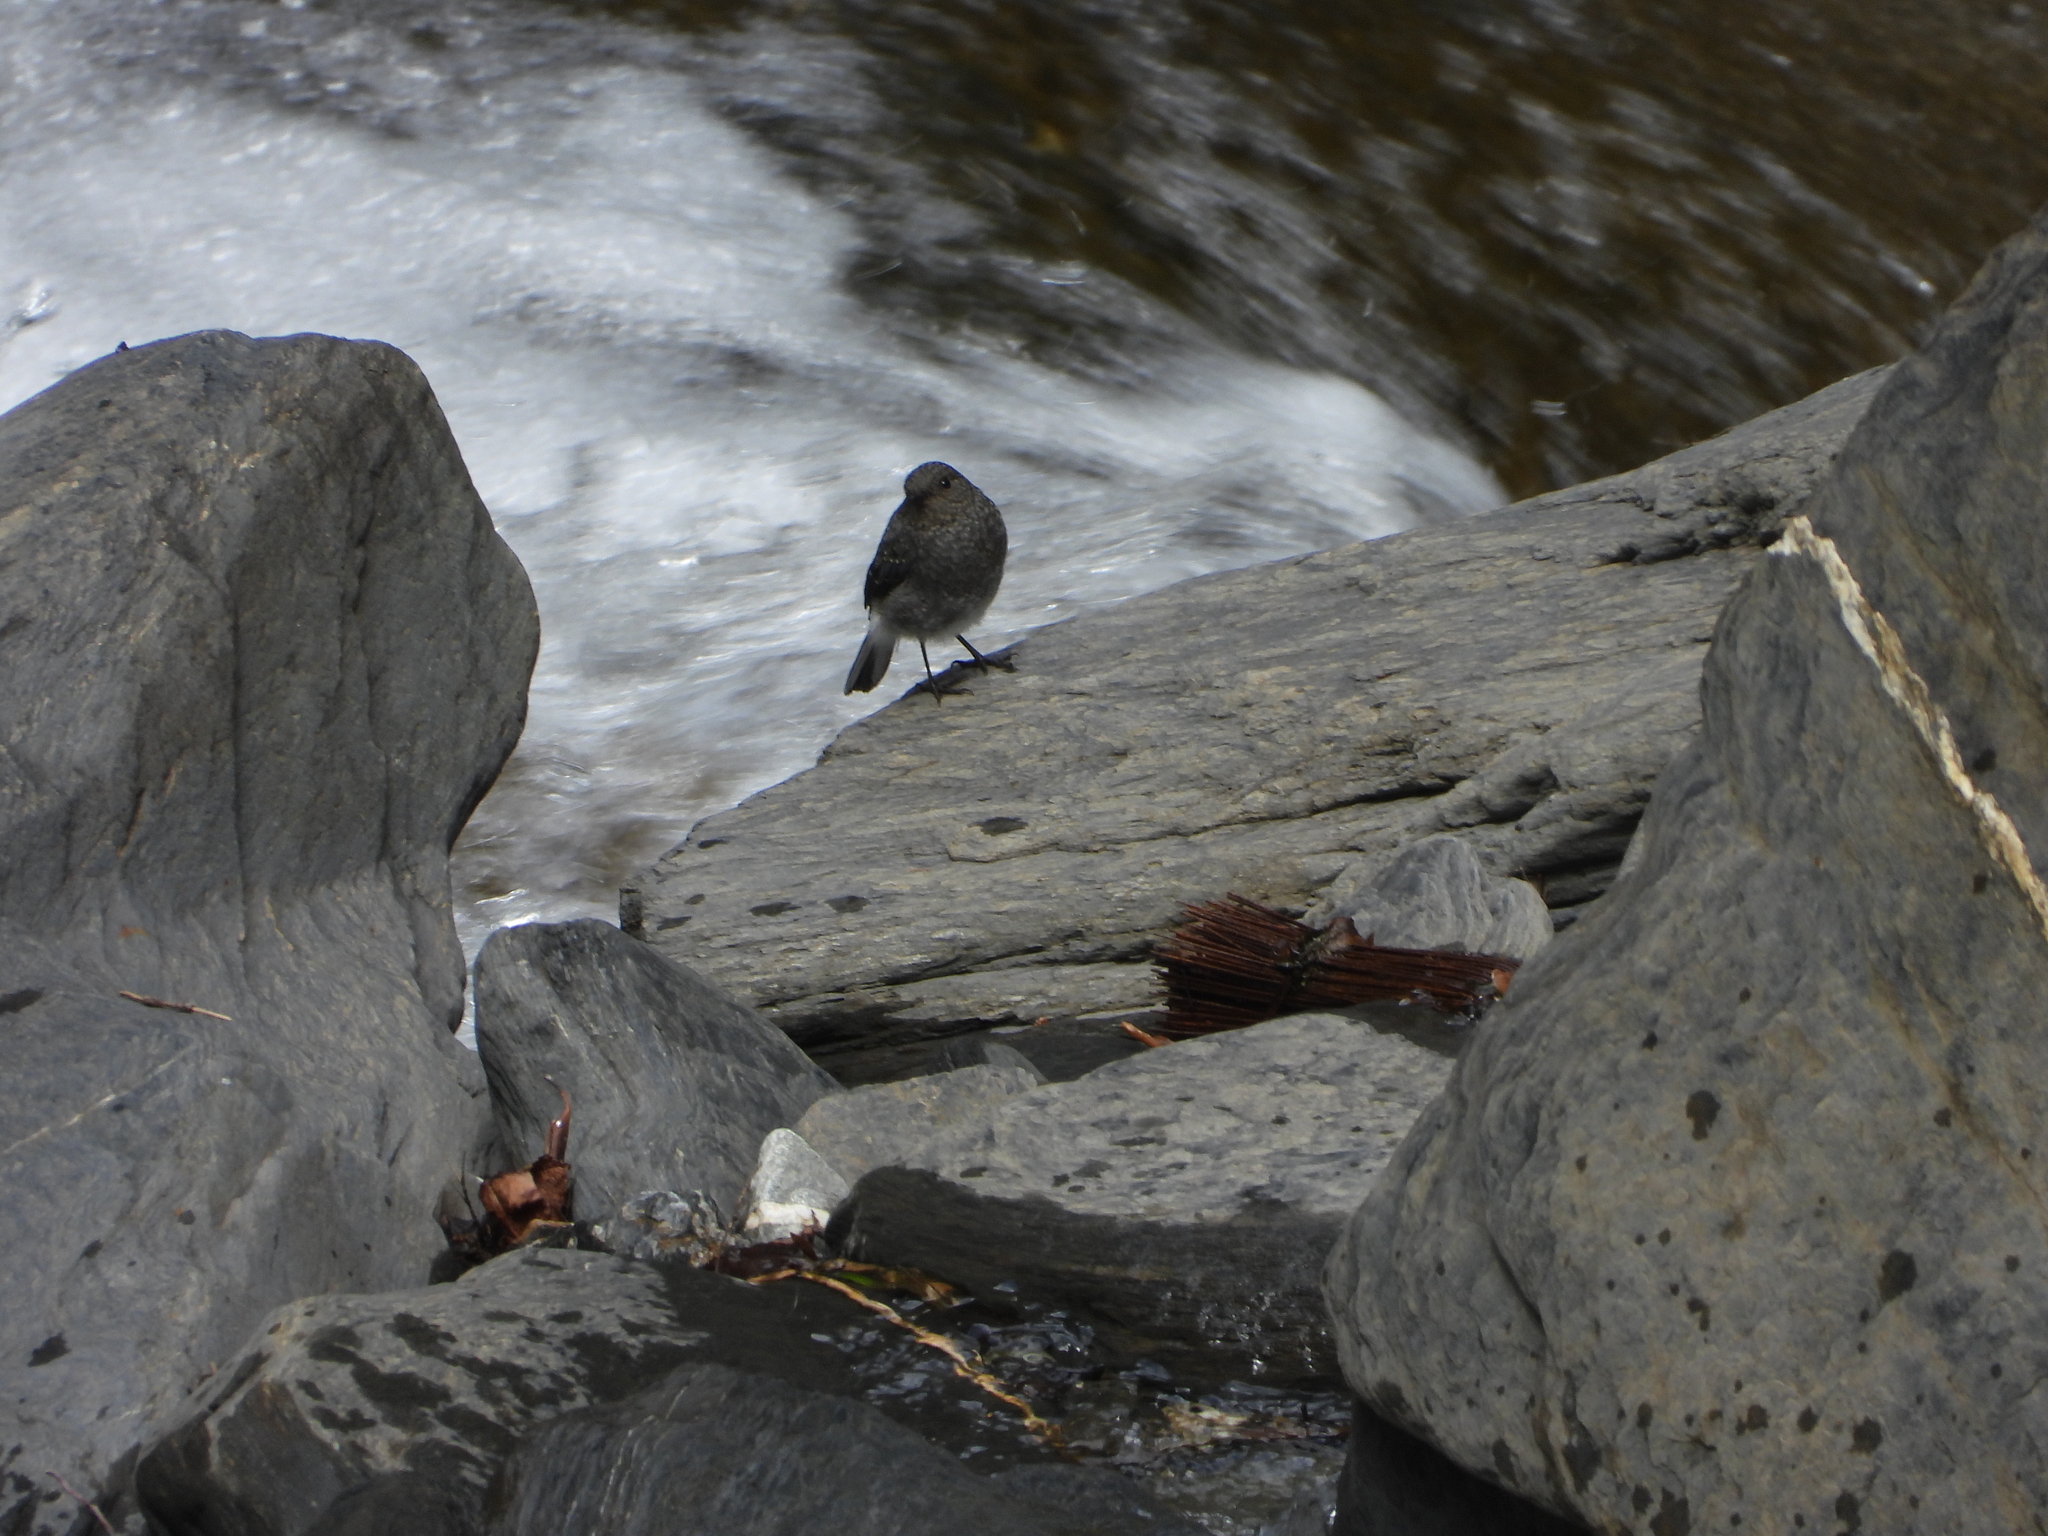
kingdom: Animalia
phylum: Chordata
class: Aves
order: Passeriformes
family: Muscicapidae
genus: Phoenicurus
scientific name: Phoenicurus fuliginosus
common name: Plumbeous water redstart
